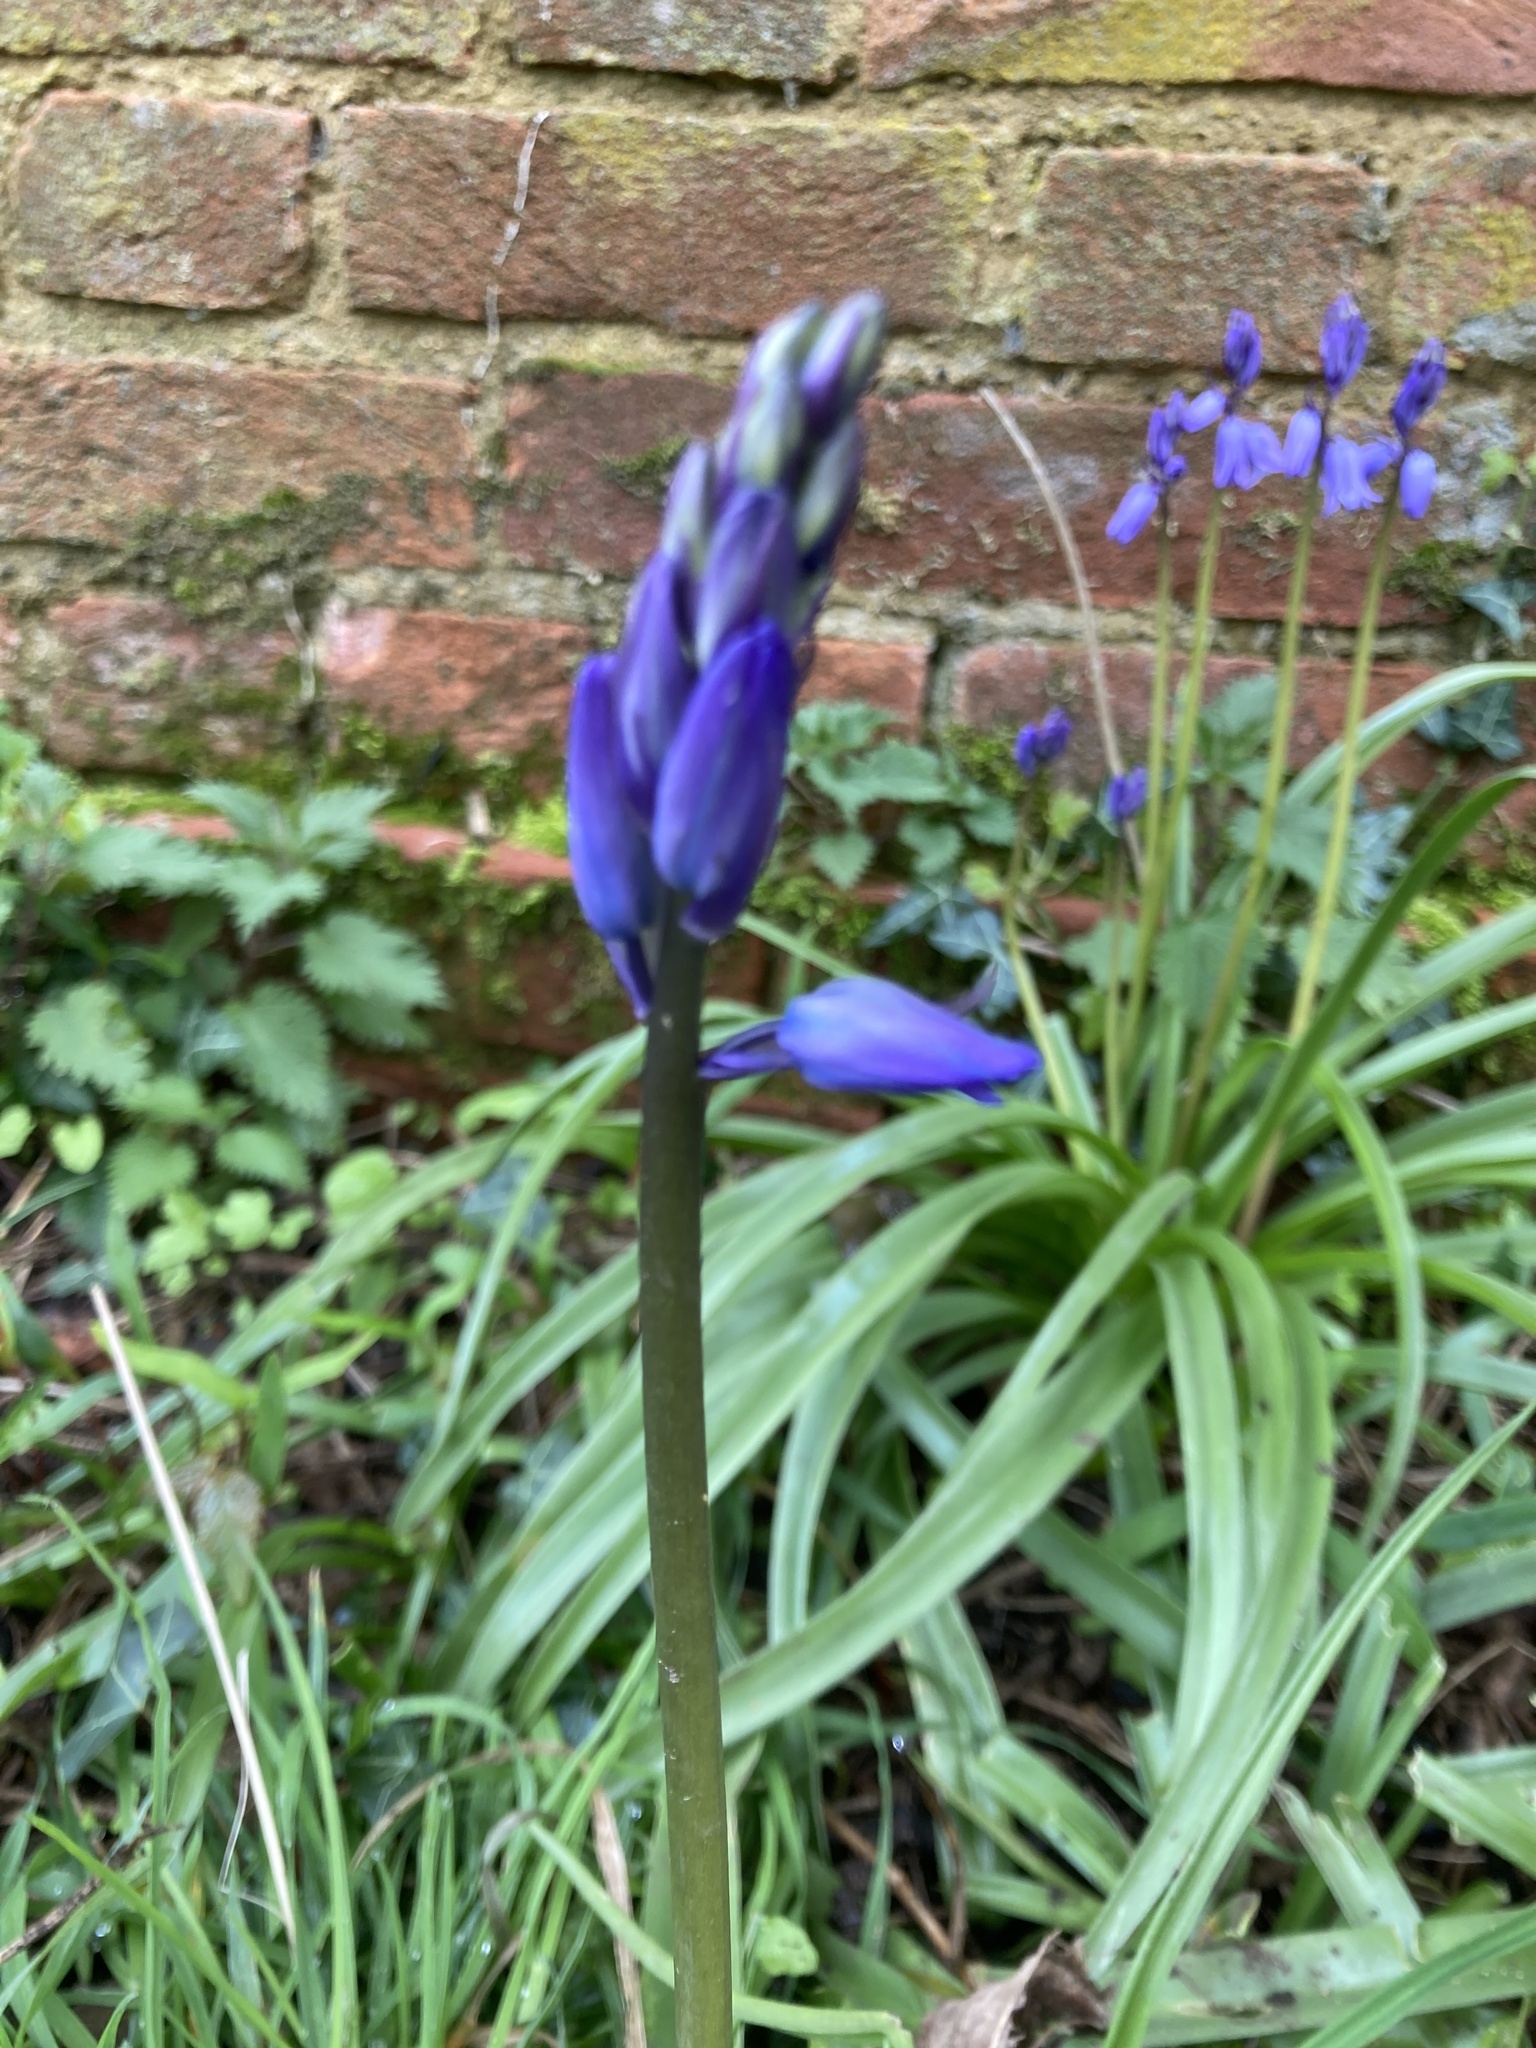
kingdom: Plantae
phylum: Tracheophyta
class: Liliopsida
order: Asparagales
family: Asparagaceae
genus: Hyacinthoides
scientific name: Hyacinthoides massartiana
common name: Hyacinthoides
